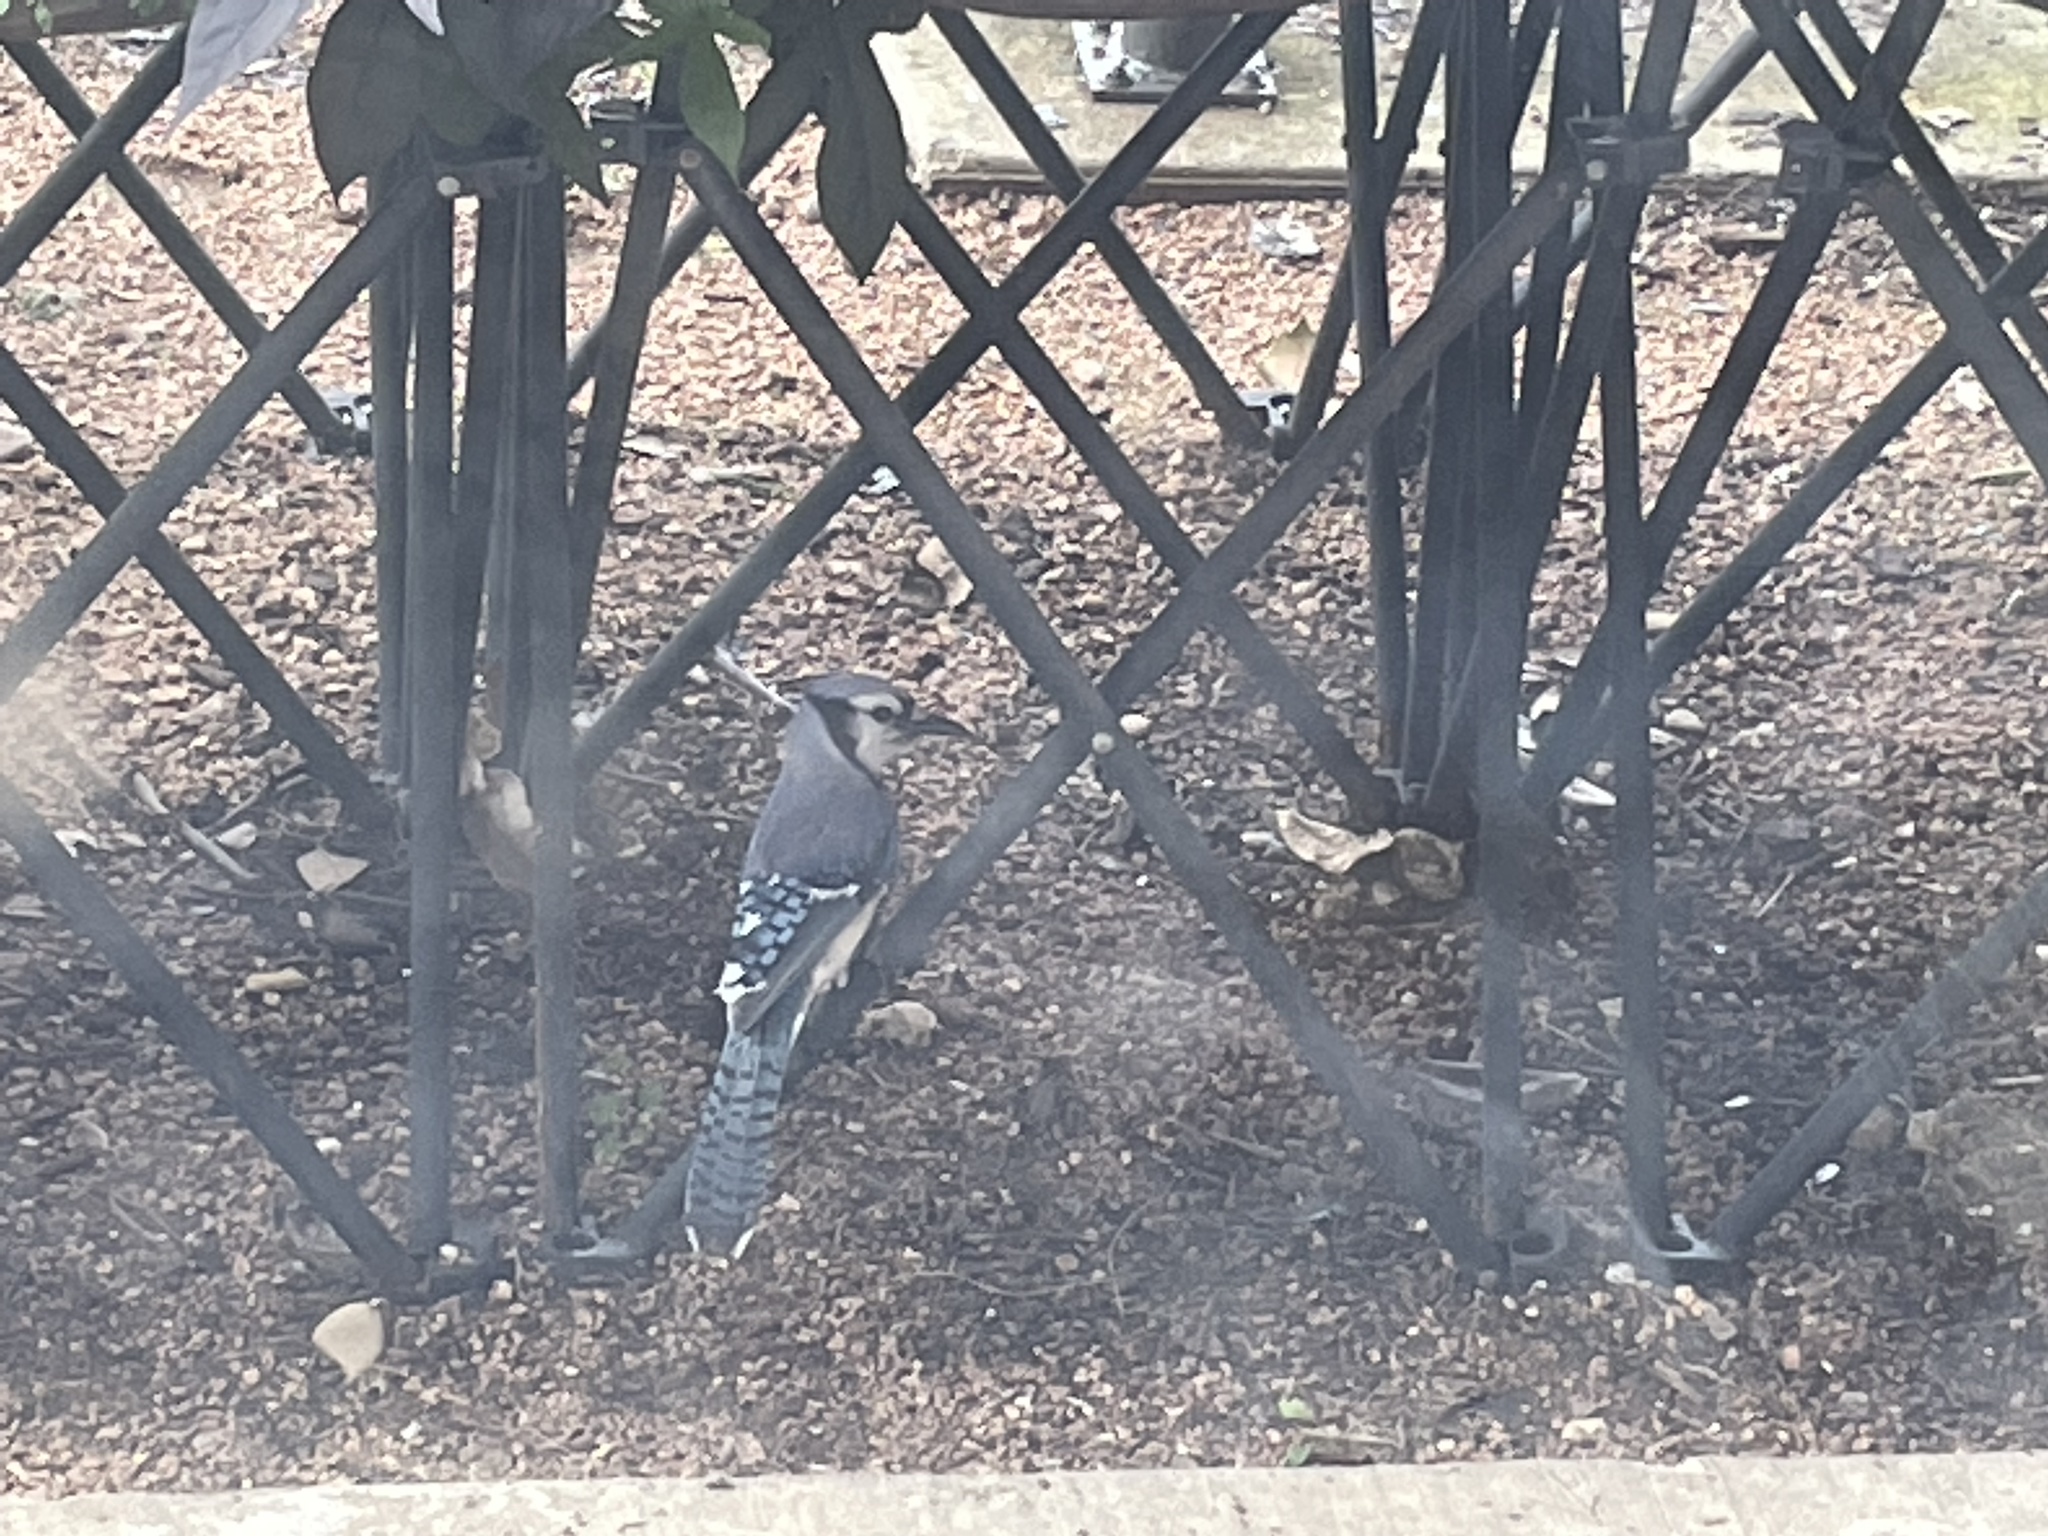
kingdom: Animalia
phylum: Chordata
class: Aves
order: Passeriformes
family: Corvidae
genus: Cyanocitta
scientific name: Cyanocitta cristata
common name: Blue jay
